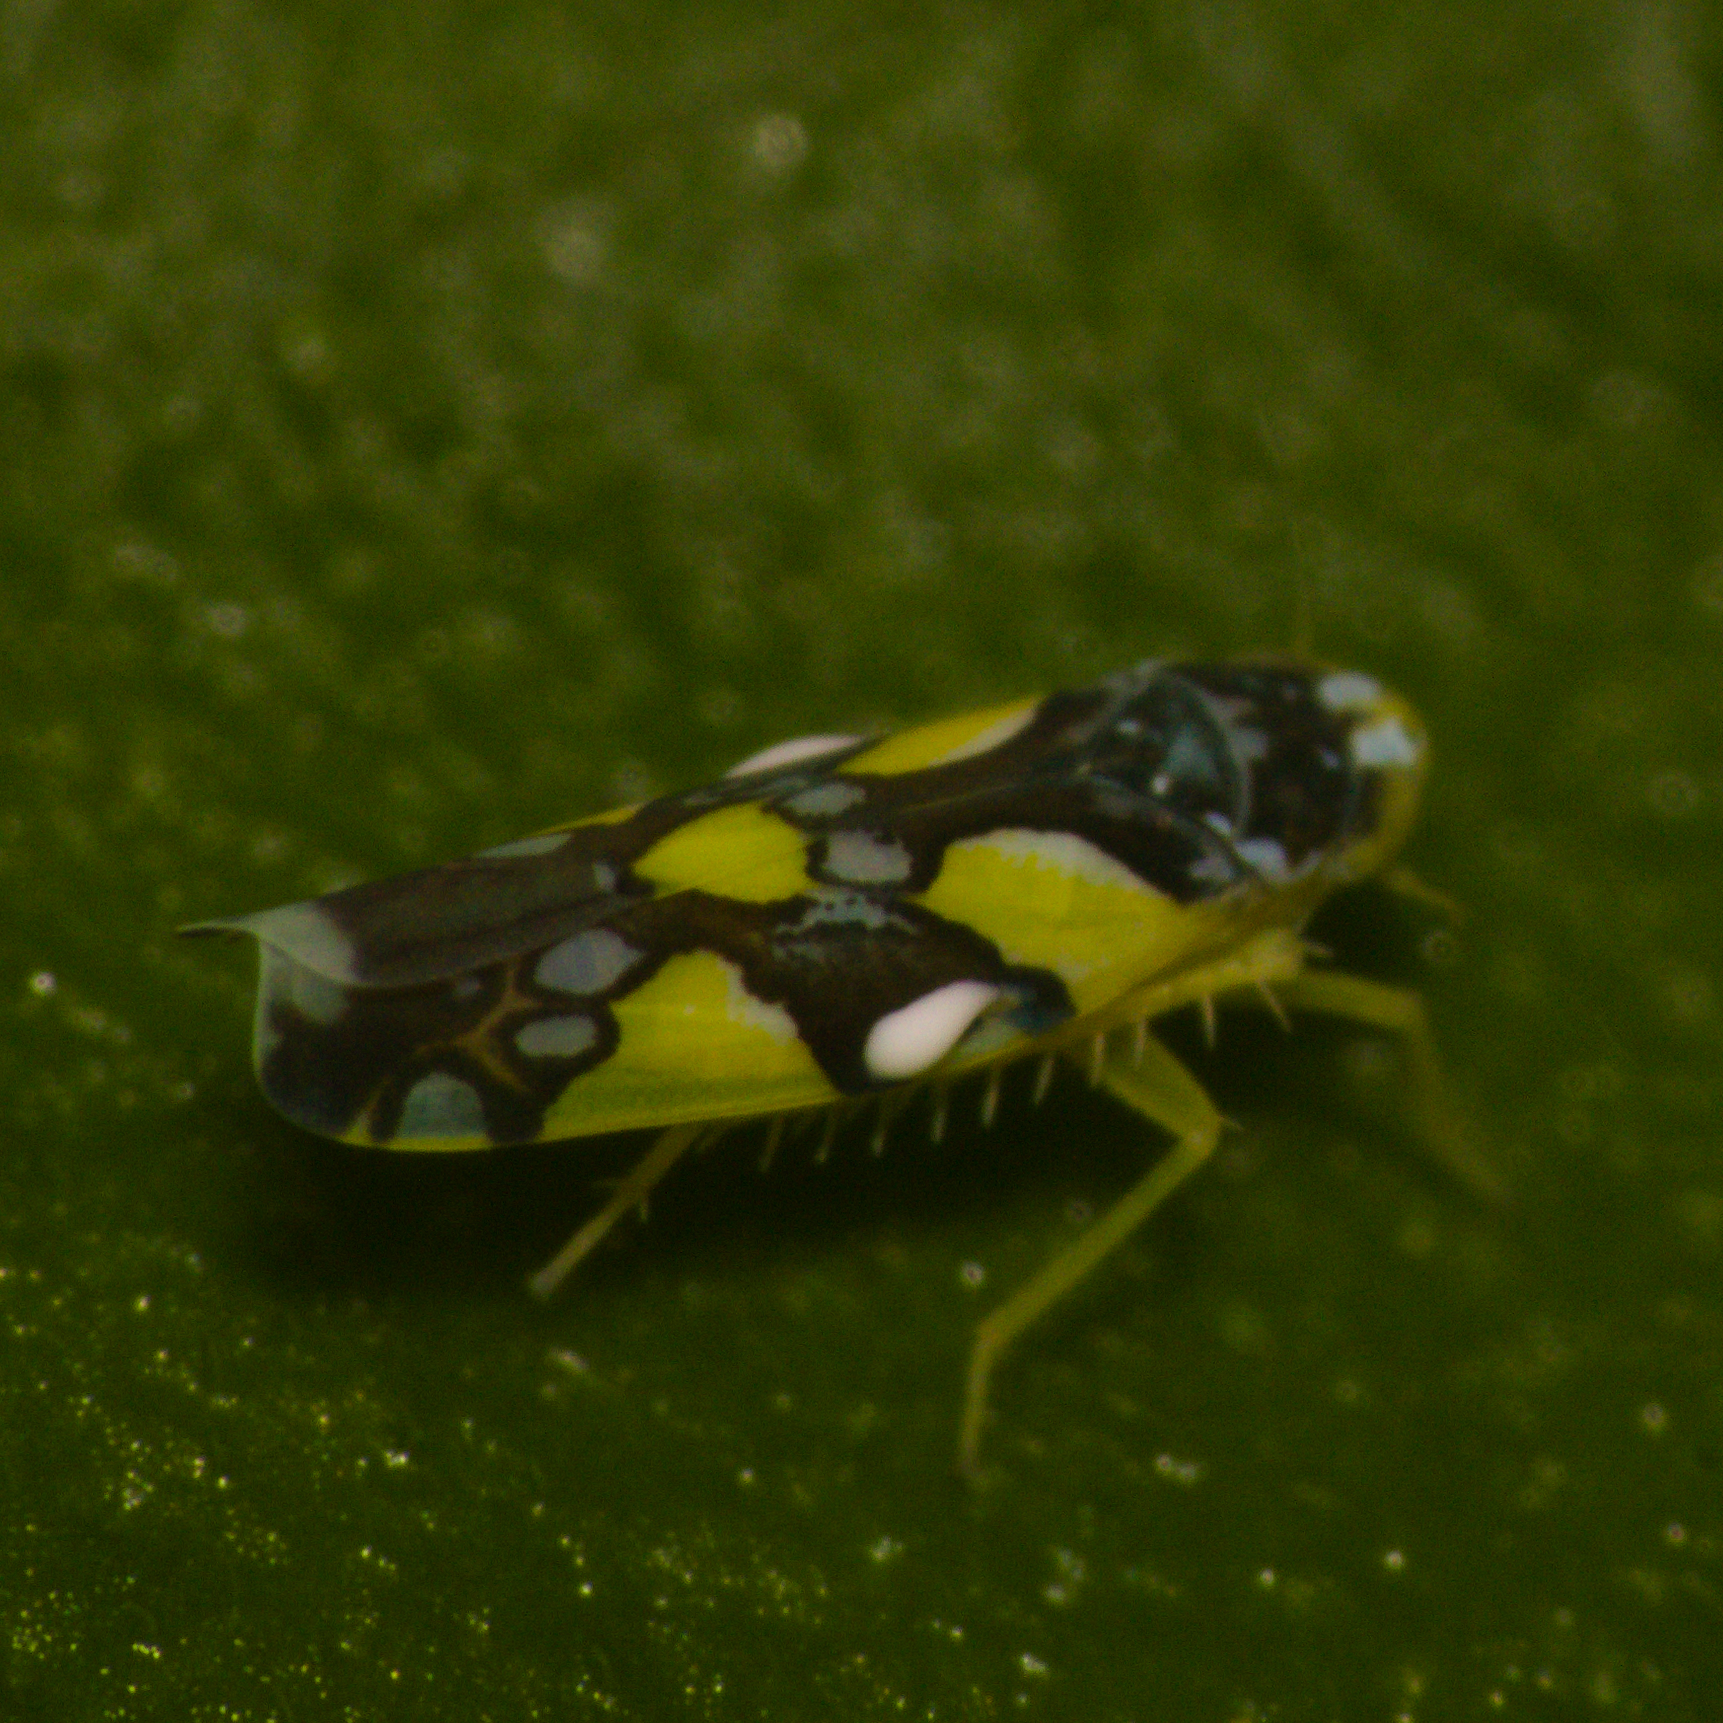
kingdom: Animalia
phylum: Arthropoda
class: Insecta
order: Hemiptera
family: Cicadellidae
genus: Protalebrella
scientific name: Protalebrella brasiliensis
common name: Brasilian leafhopper
